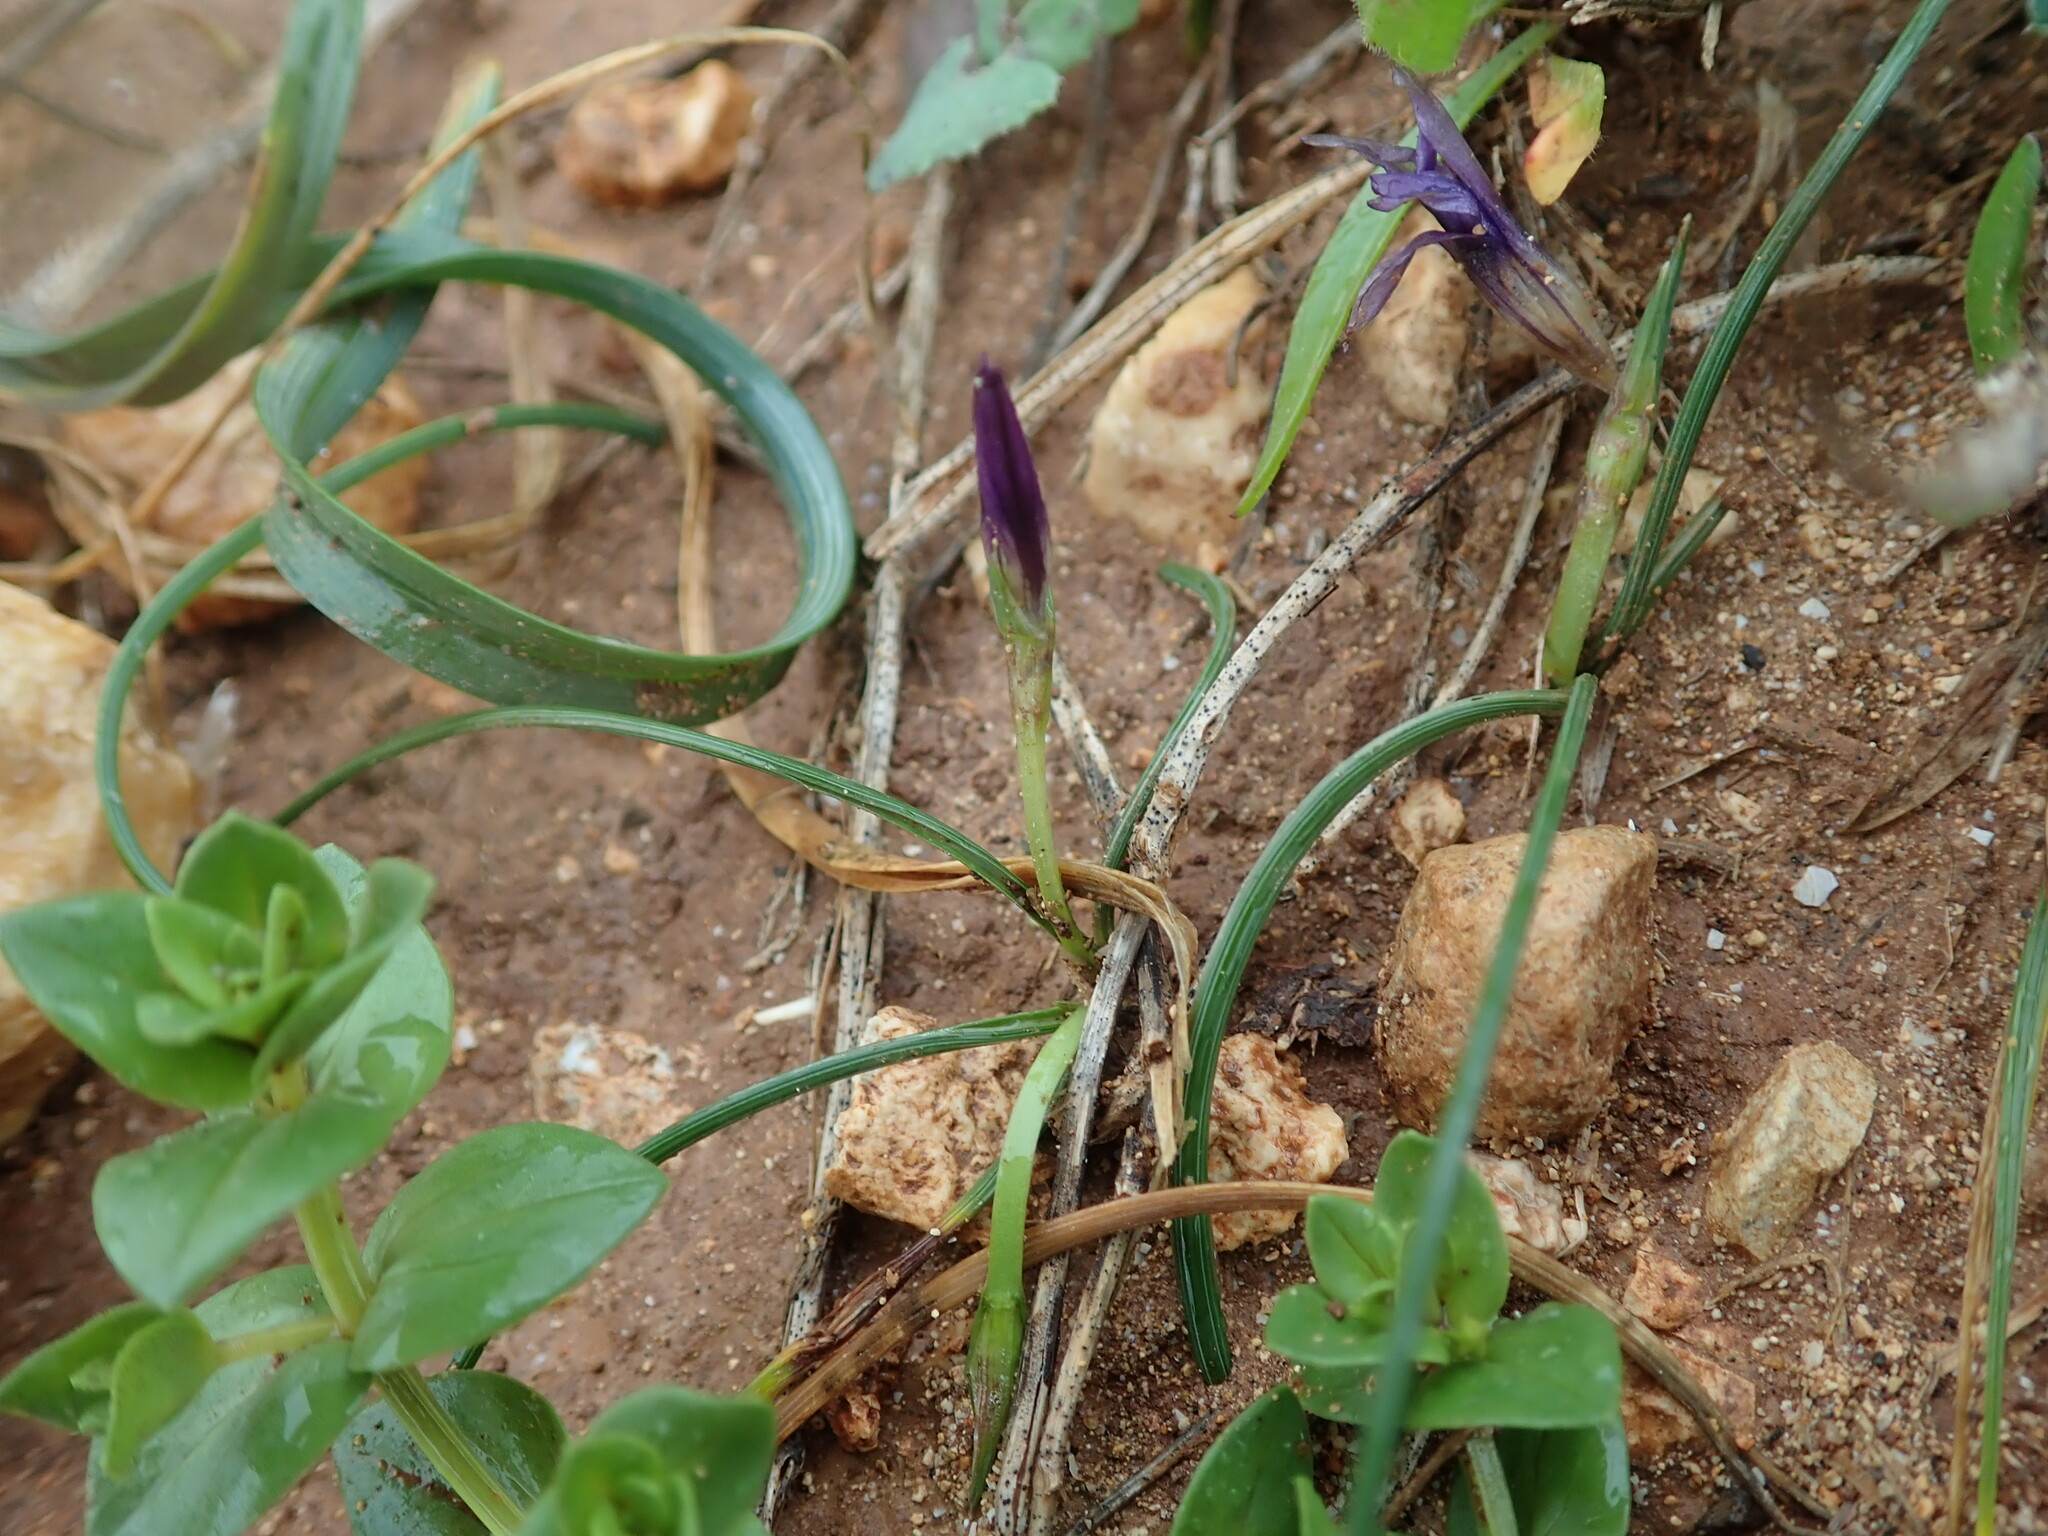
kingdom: Plantae
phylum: Tracheophyta
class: Liliopsida
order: Asparagales
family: Iridaceae
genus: Romulea
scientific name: Romulea variicolor
